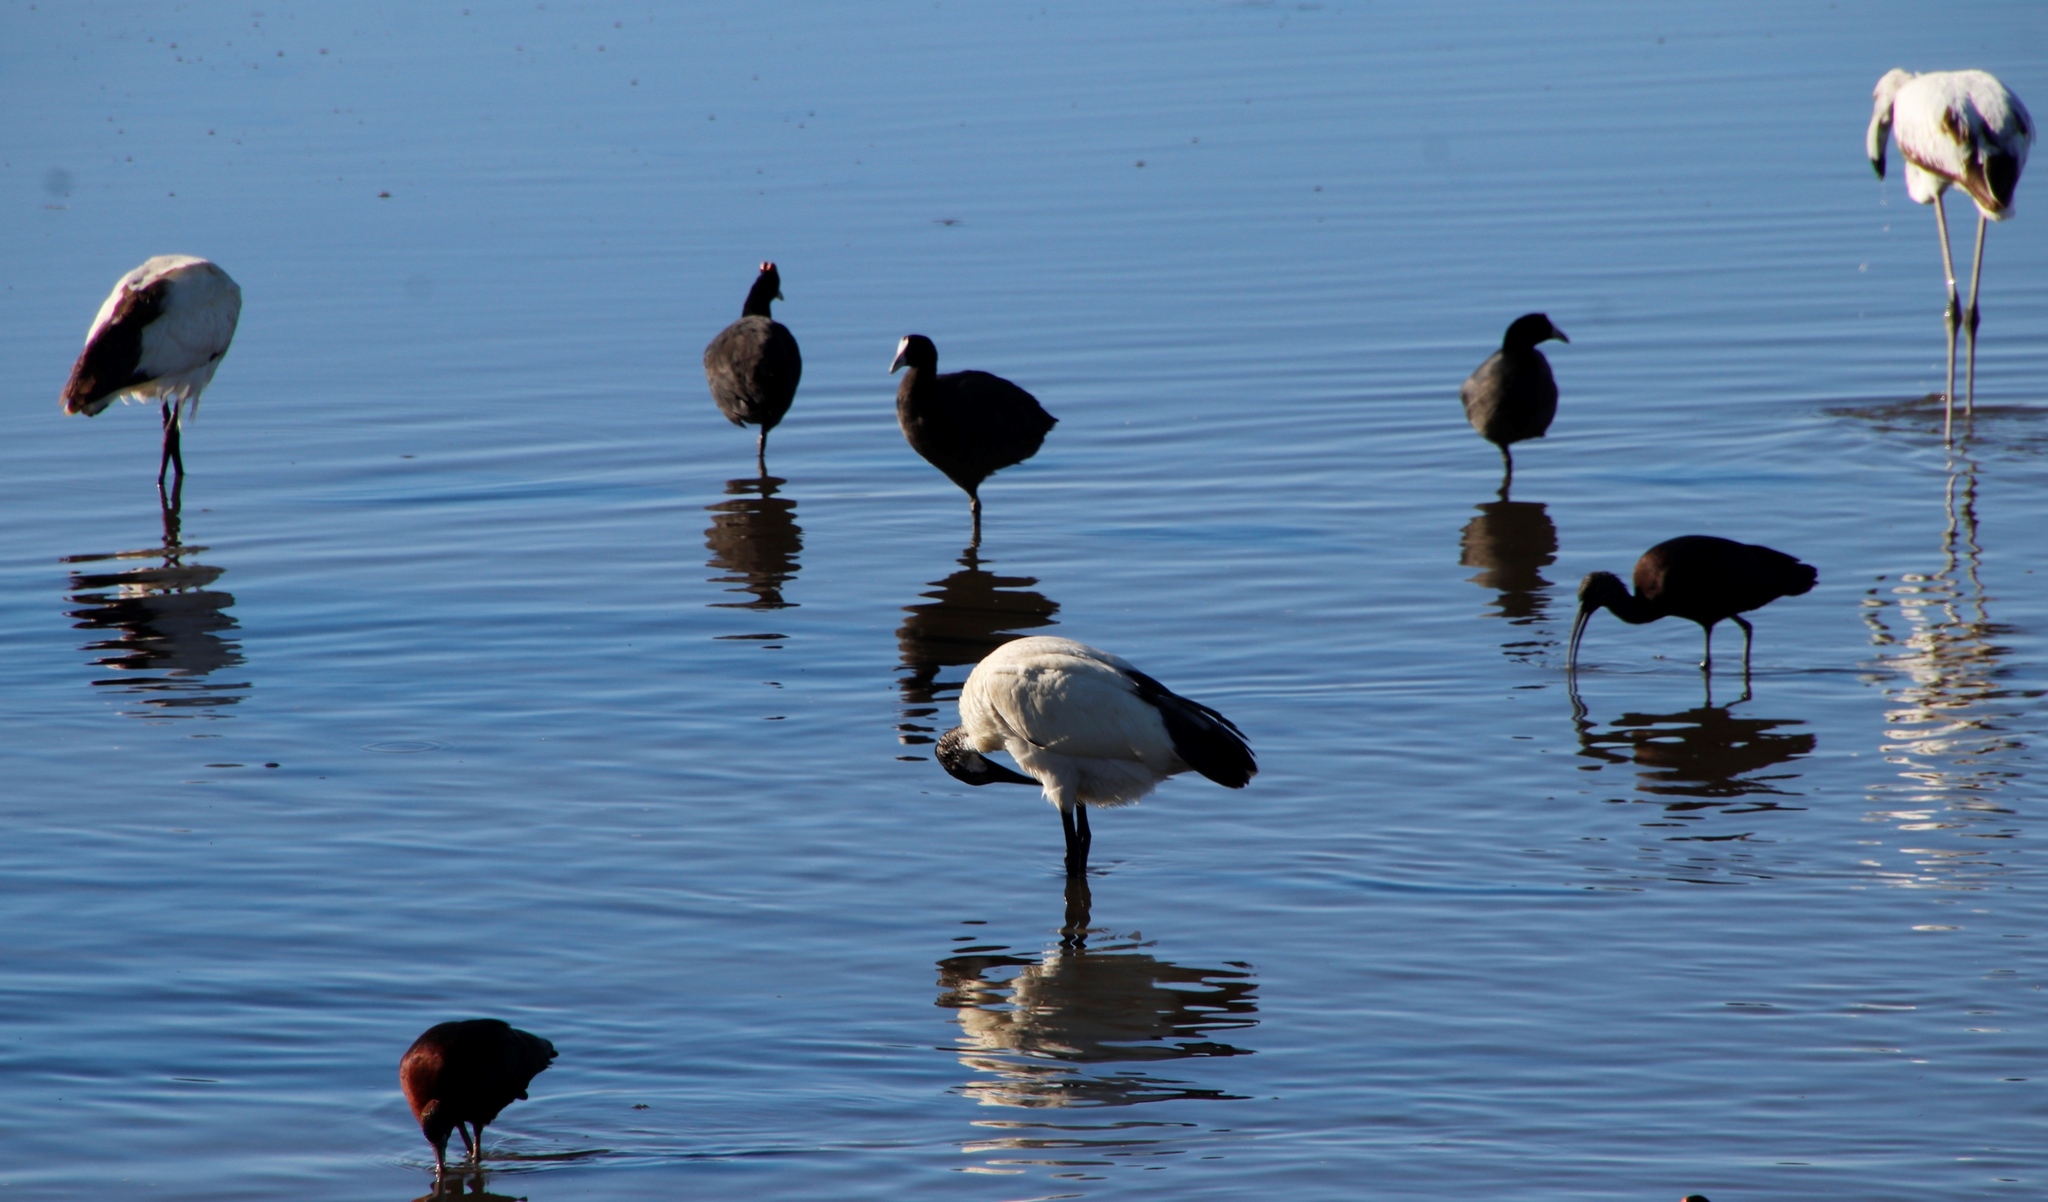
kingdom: Animalia
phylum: Chordata
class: Aves
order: Pelecaniformes
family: Threskiornithidae
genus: Threskiornis
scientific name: Threskiornis aethiopicus
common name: Sacred ibis
